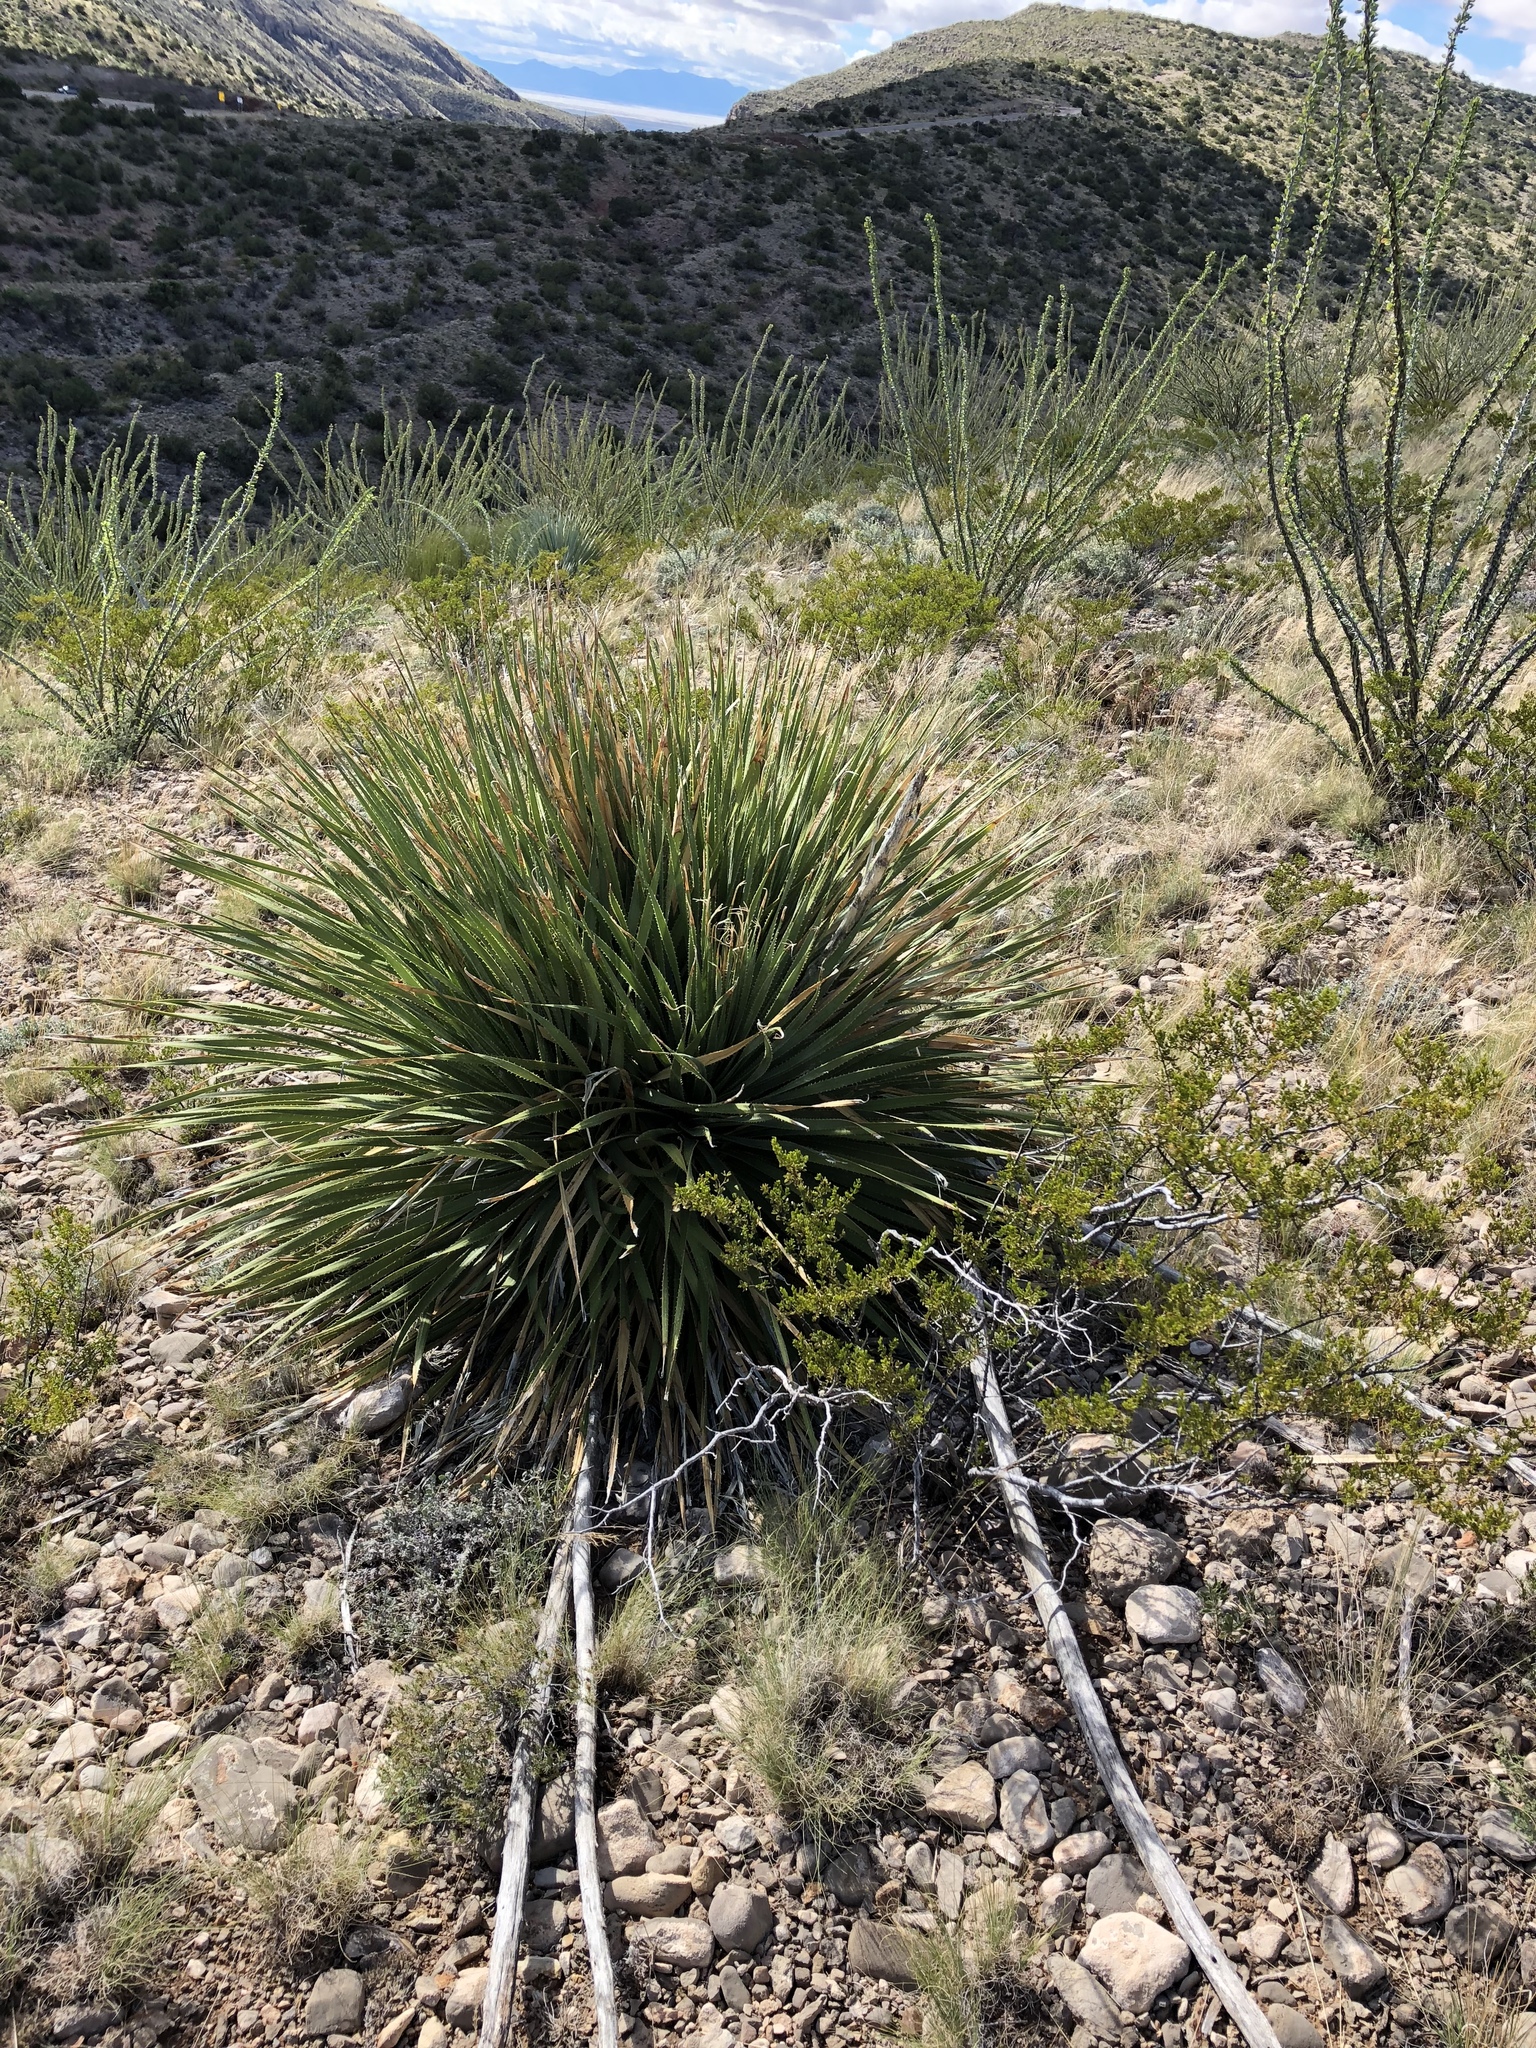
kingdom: Plantae
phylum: Tracheophyta
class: Liliopsida
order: Asparagales
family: Asparagaceae
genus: Dasylirion
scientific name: Dasylirion wheeleri
